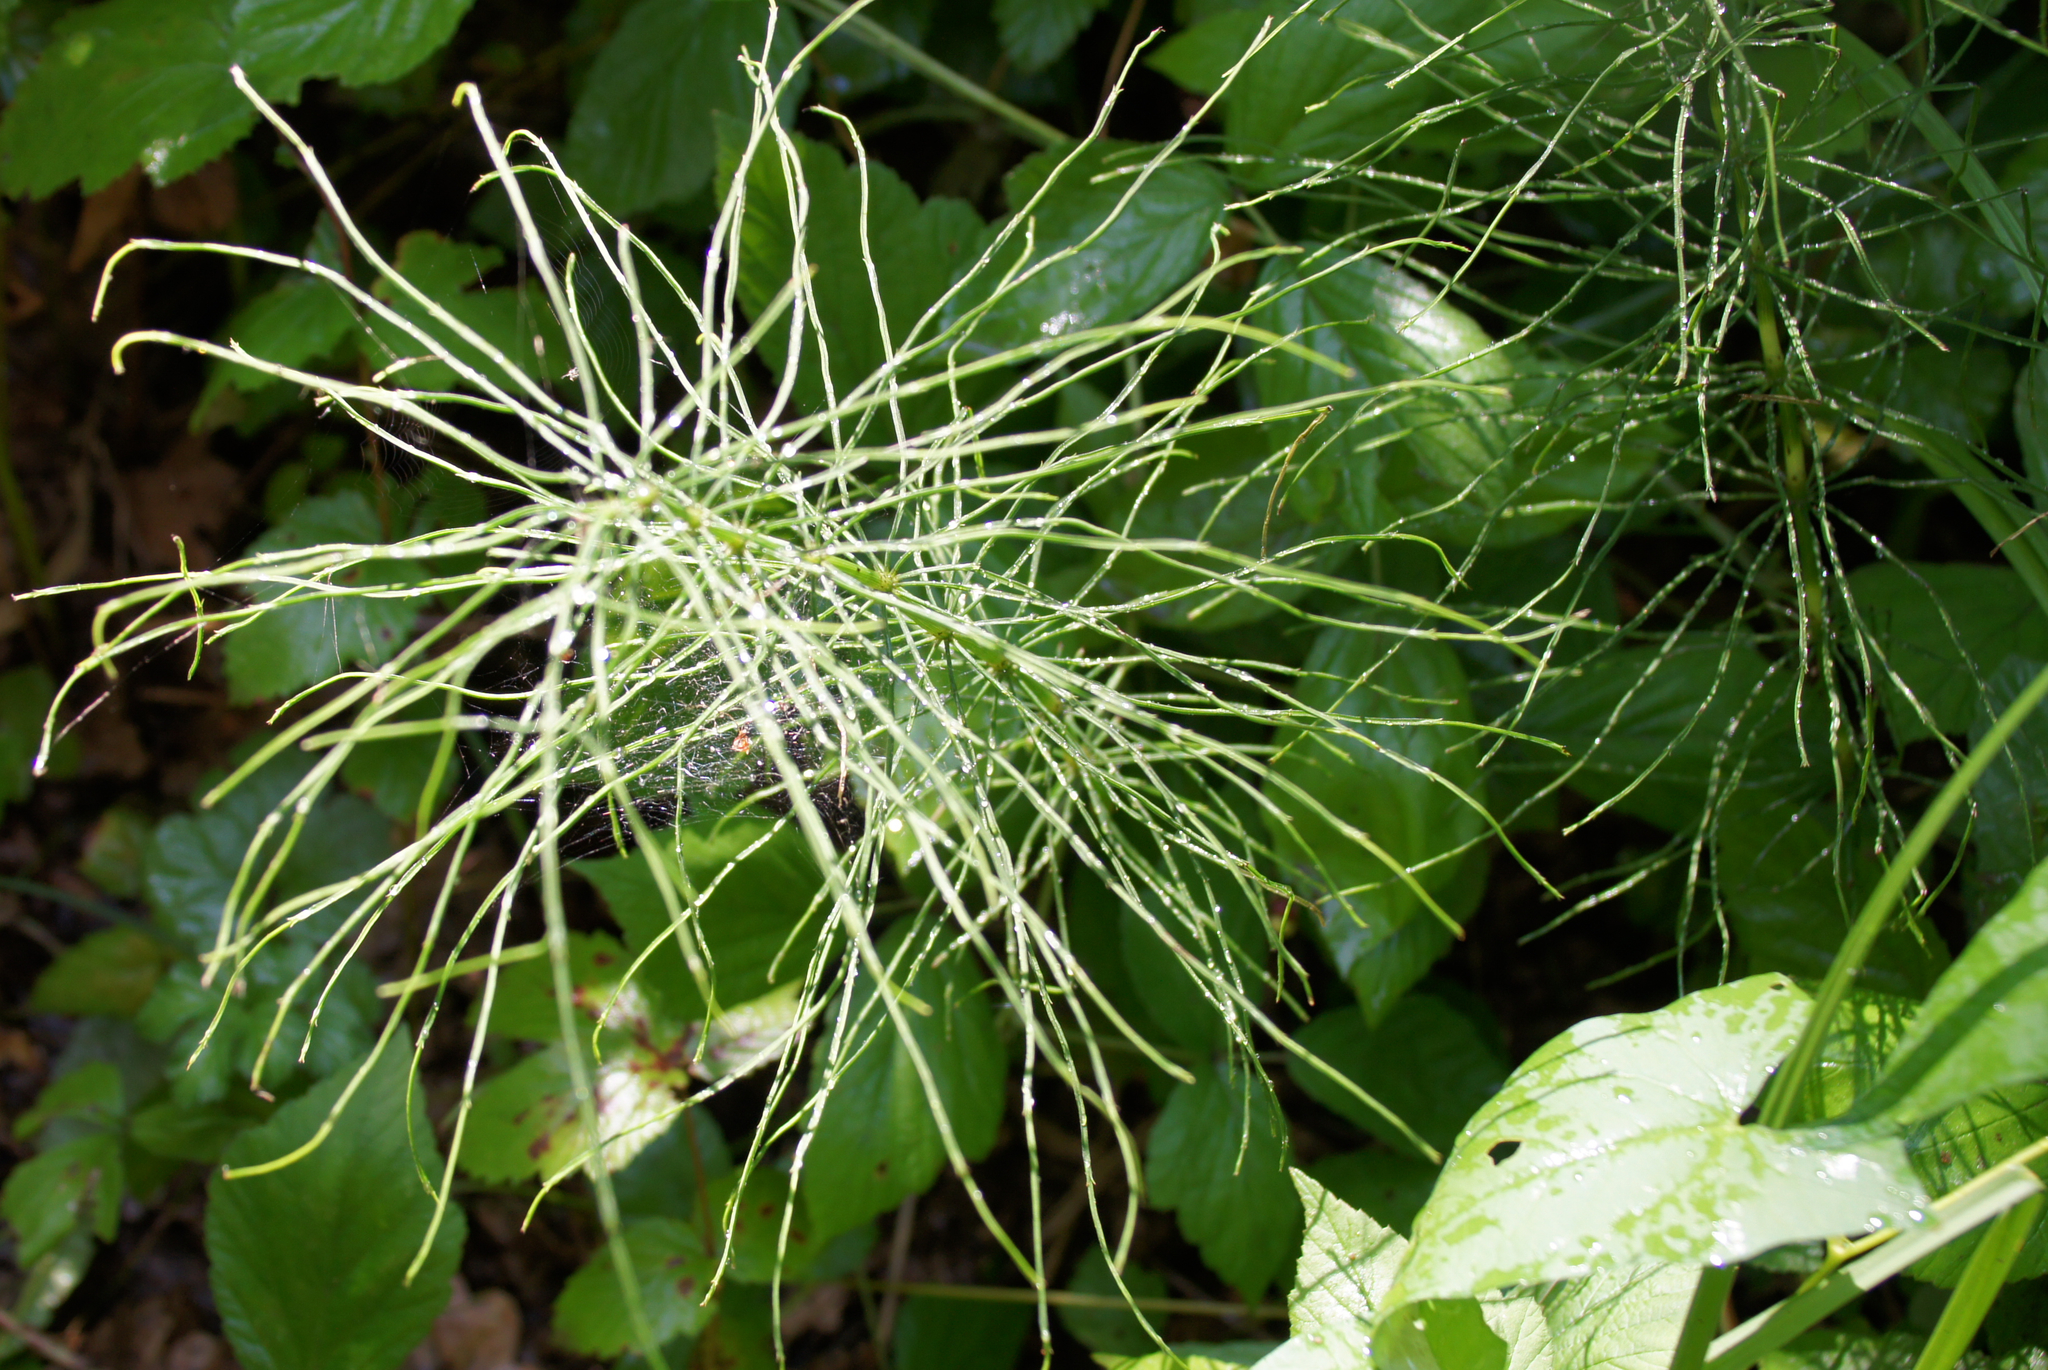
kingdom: Plantae
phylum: Tracheophyta
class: Polypodiopsida
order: Equisetales
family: Equisetaceae
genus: Equisetum
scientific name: Equisetum arvense
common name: Field horsetail
